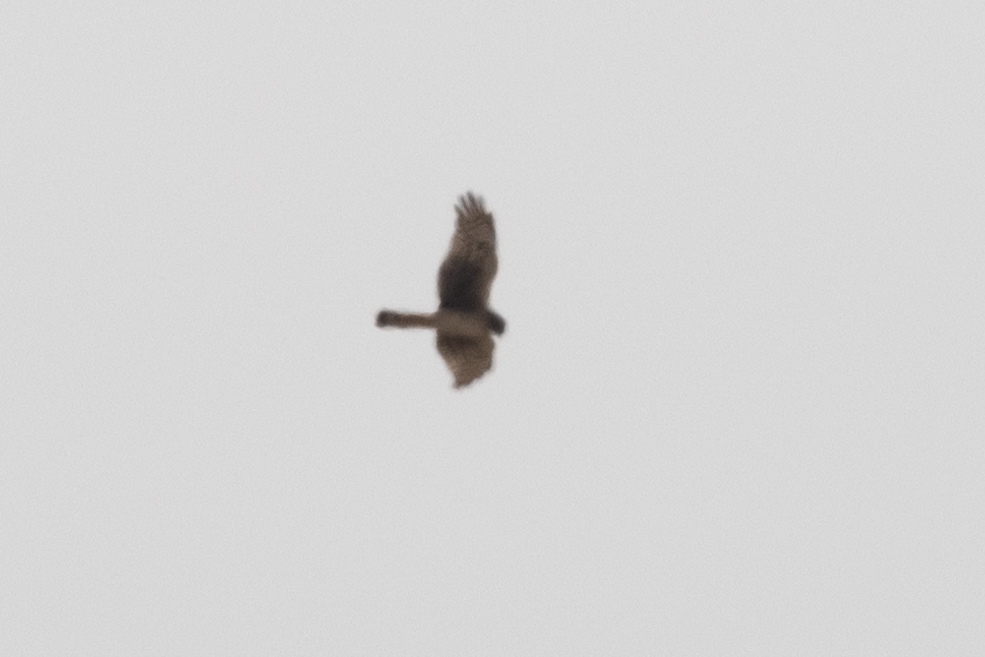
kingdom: Animalia
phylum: Chordata
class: Aves
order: Accipitriformes
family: Accipitridae
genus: Circus
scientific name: Circus cyaneus
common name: Hen harrier
